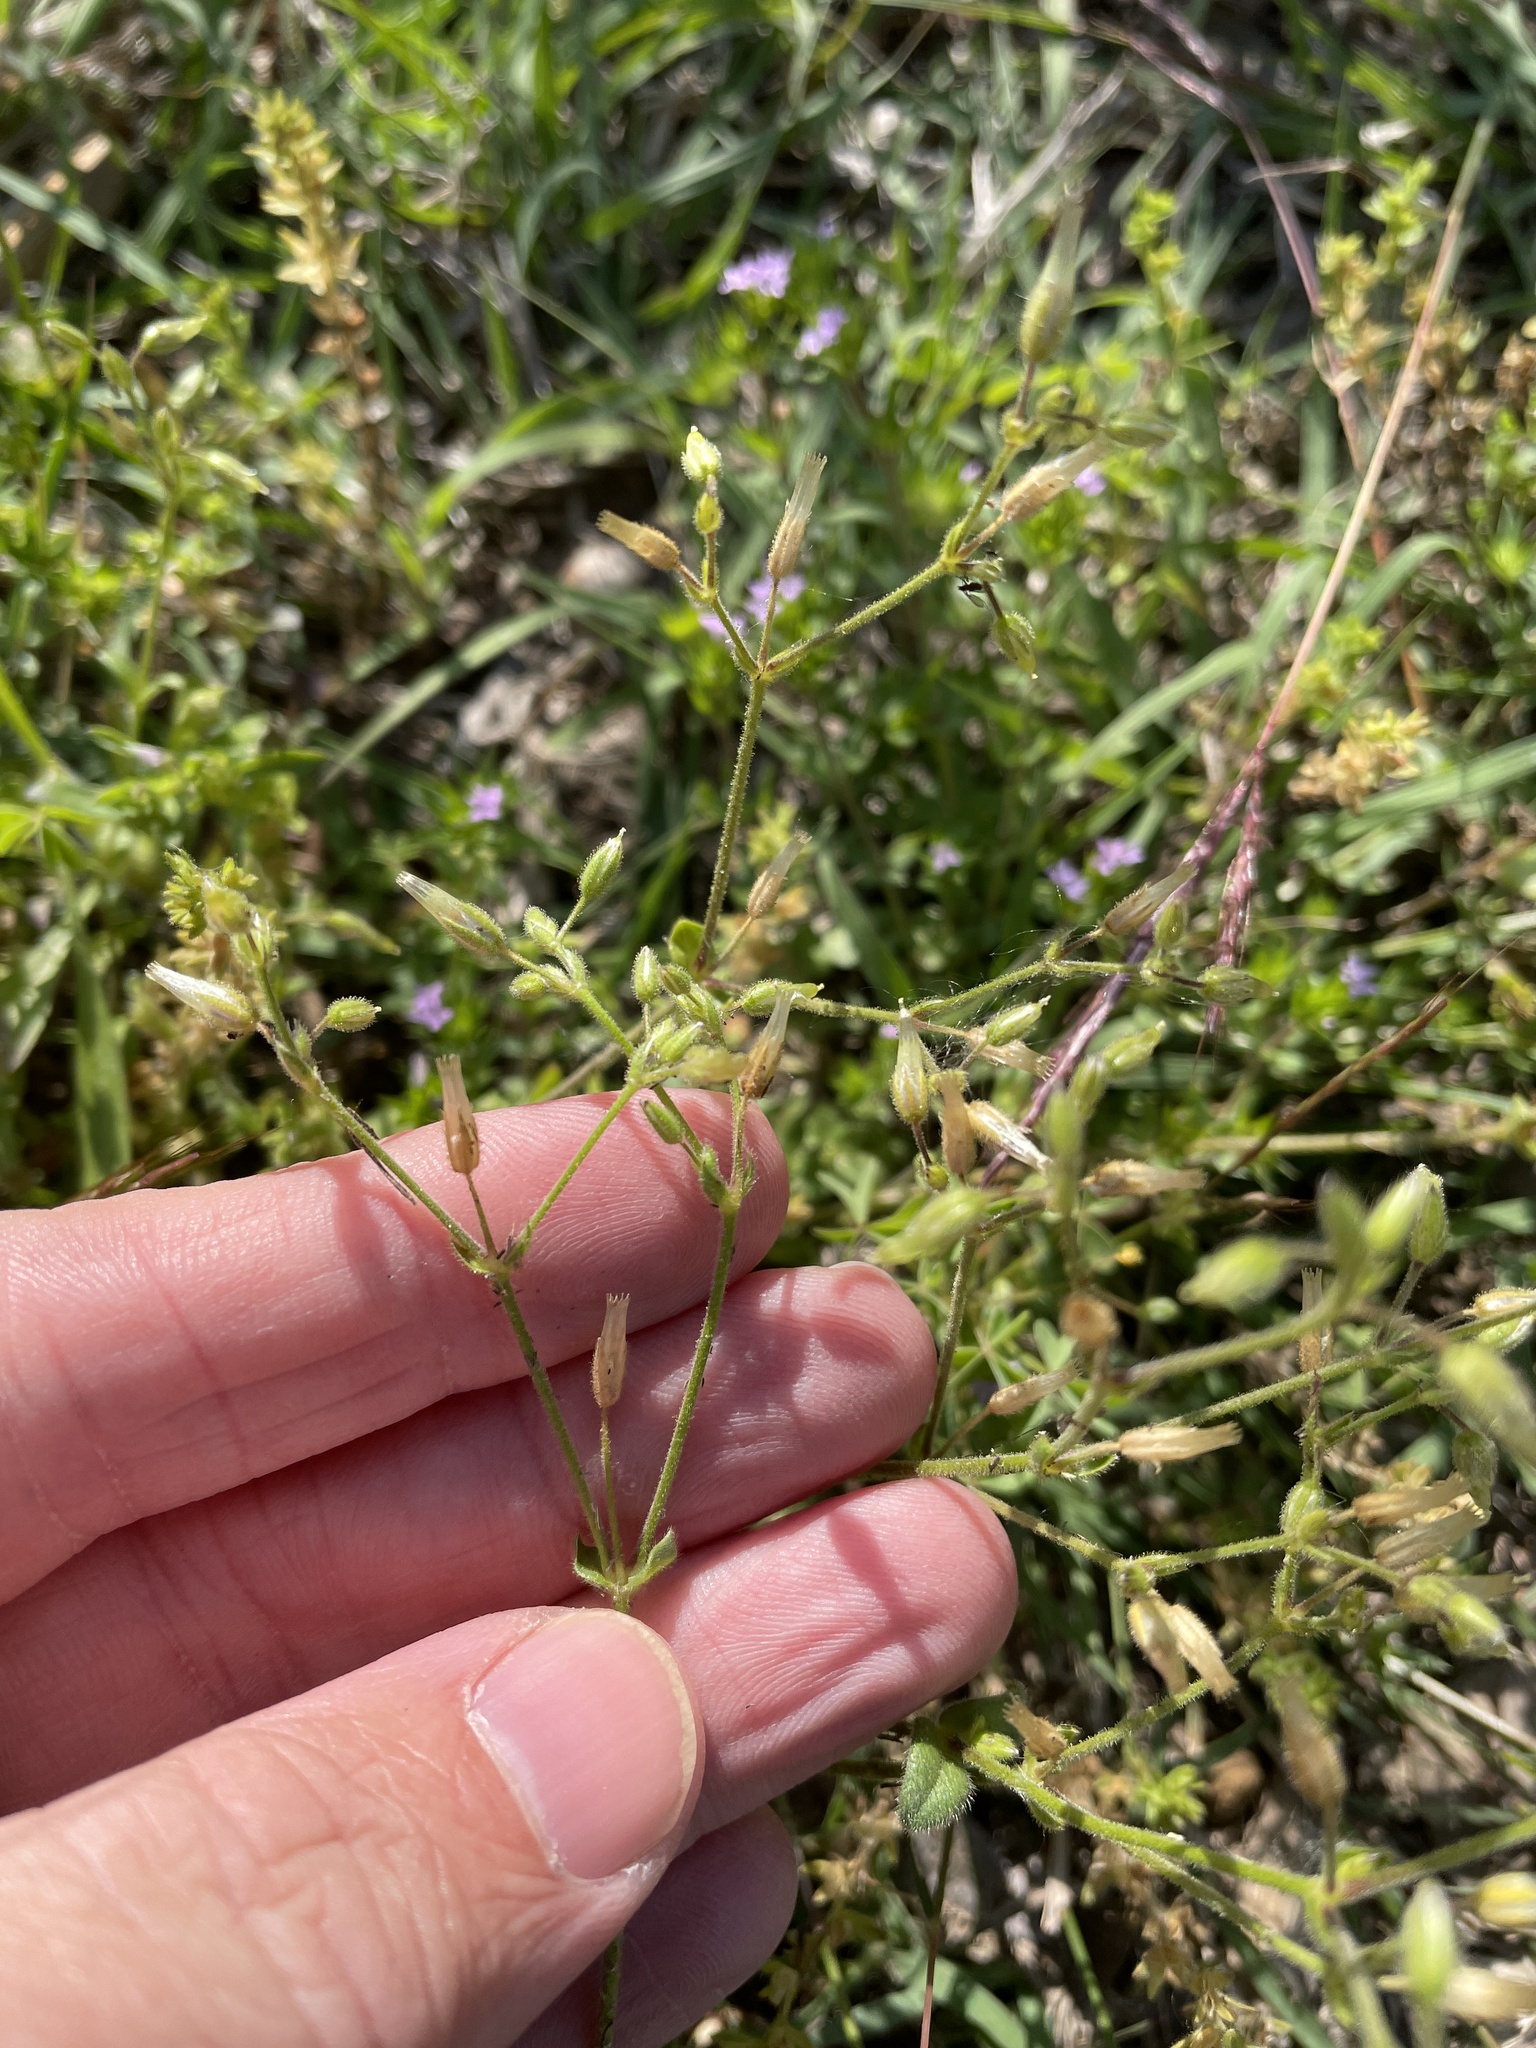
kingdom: Plantae
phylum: Tracheophyta
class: Magnoliopsida
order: Caryophyllales
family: Caryophyllaceae
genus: Cerastium
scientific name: Cerastium glomeratum
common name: Sticky chickweed
